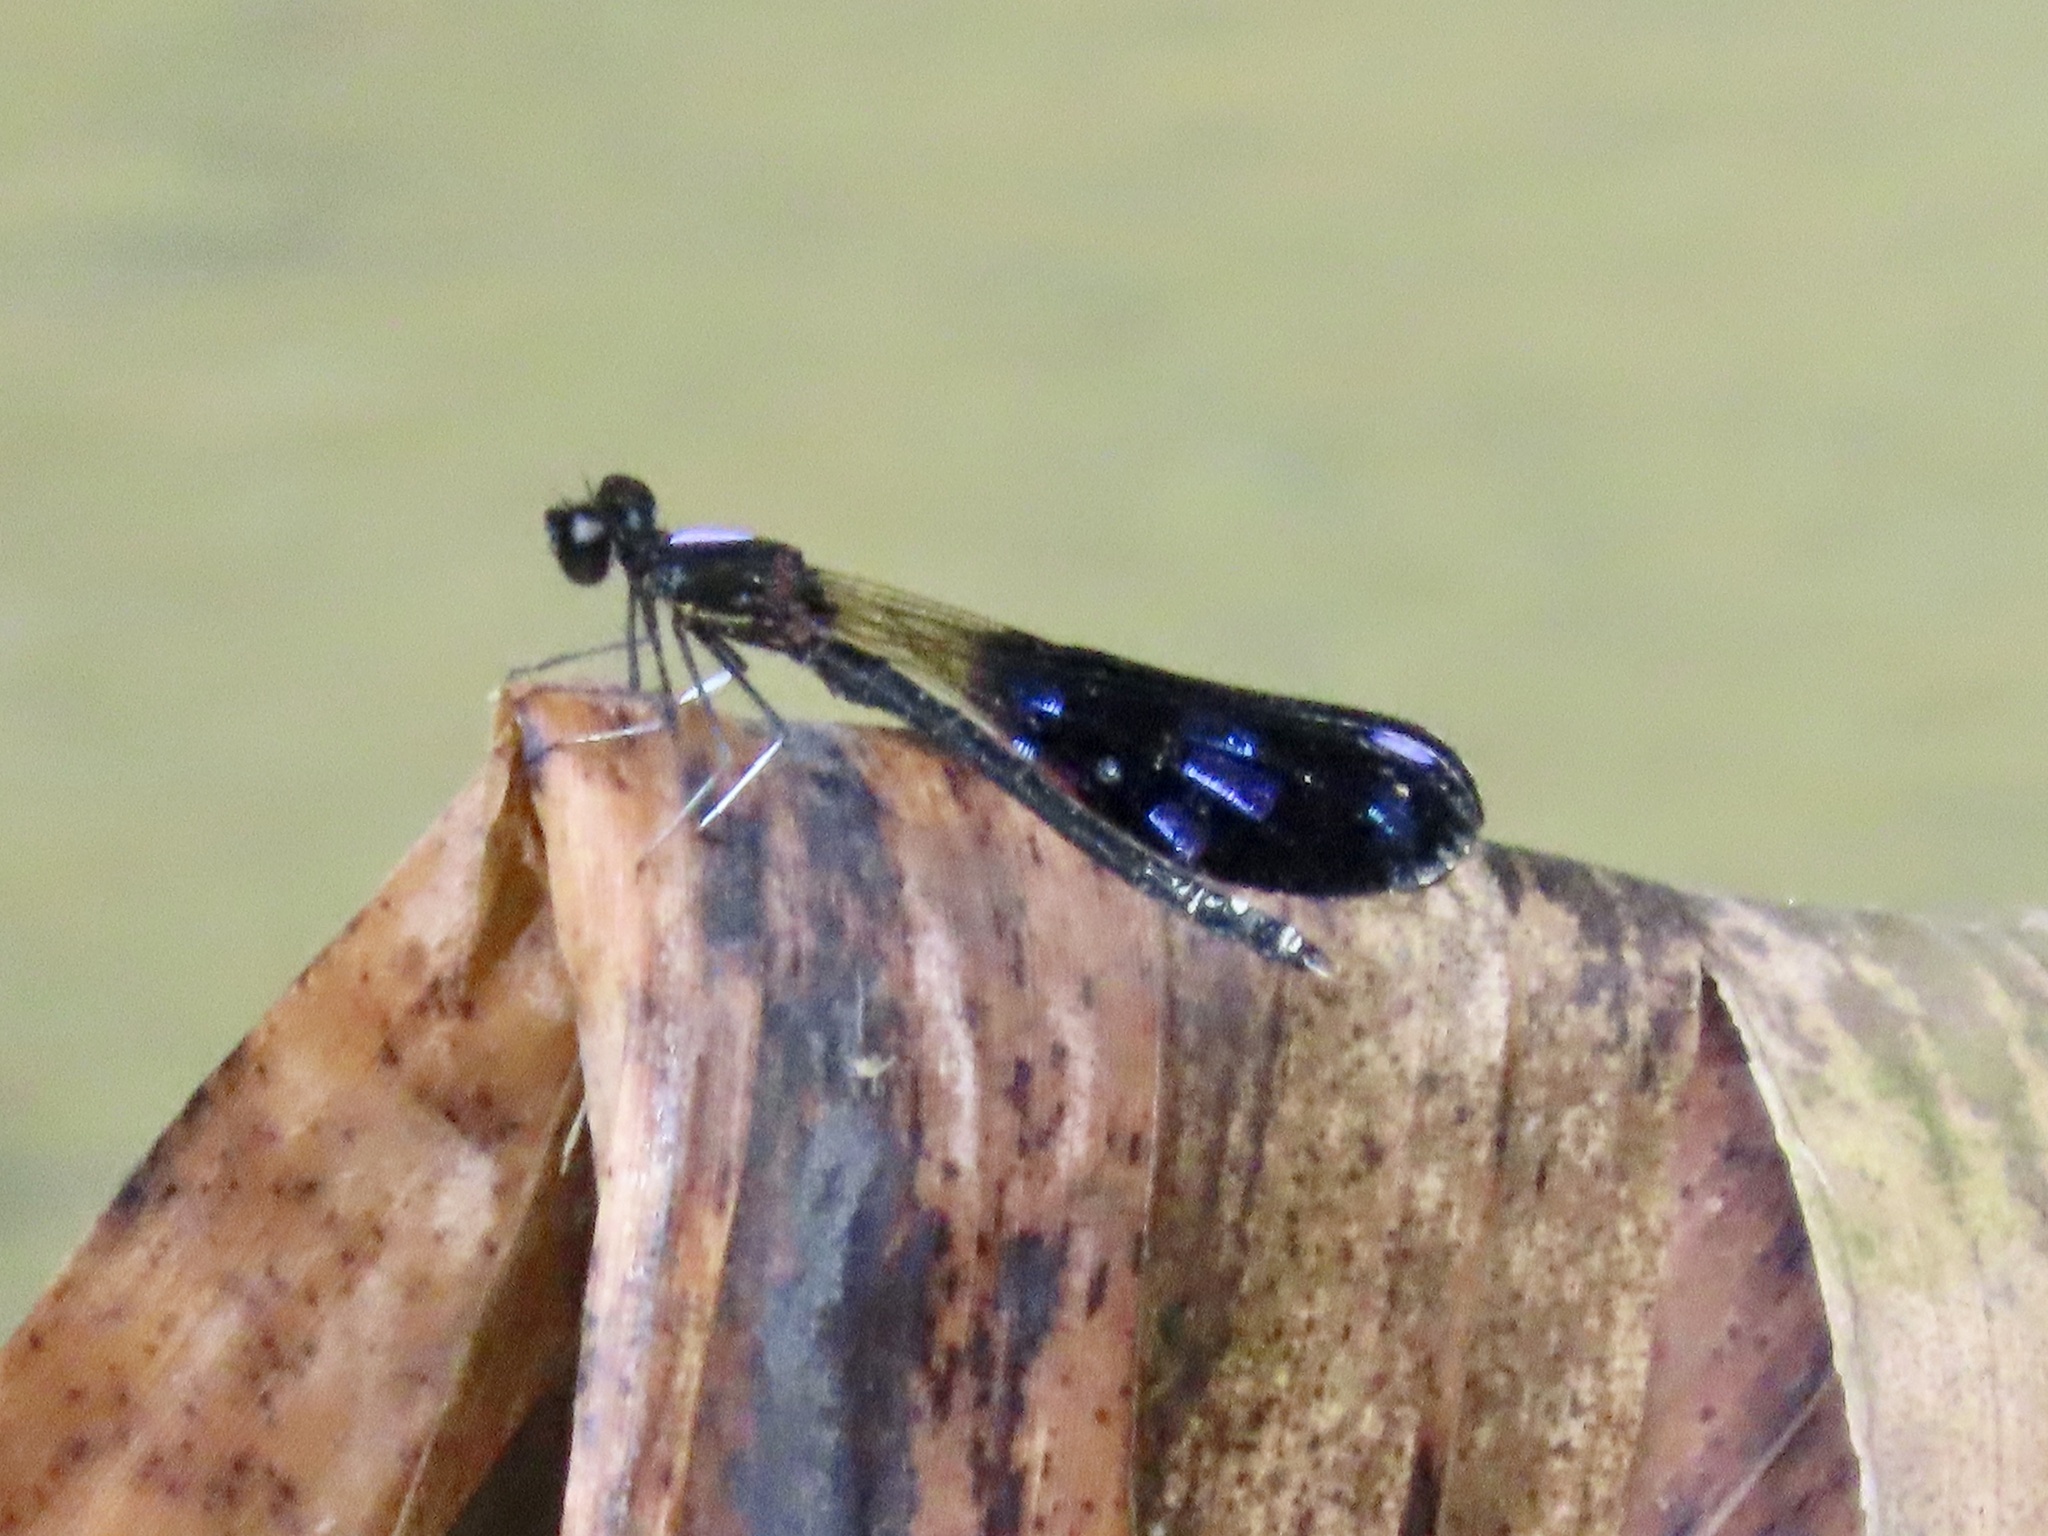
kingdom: Animalia
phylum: Arthropoda
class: Insecta
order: Odonata
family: Chlorocyphidae
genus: Aristocypha
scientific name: Aristocypha fenestrella
